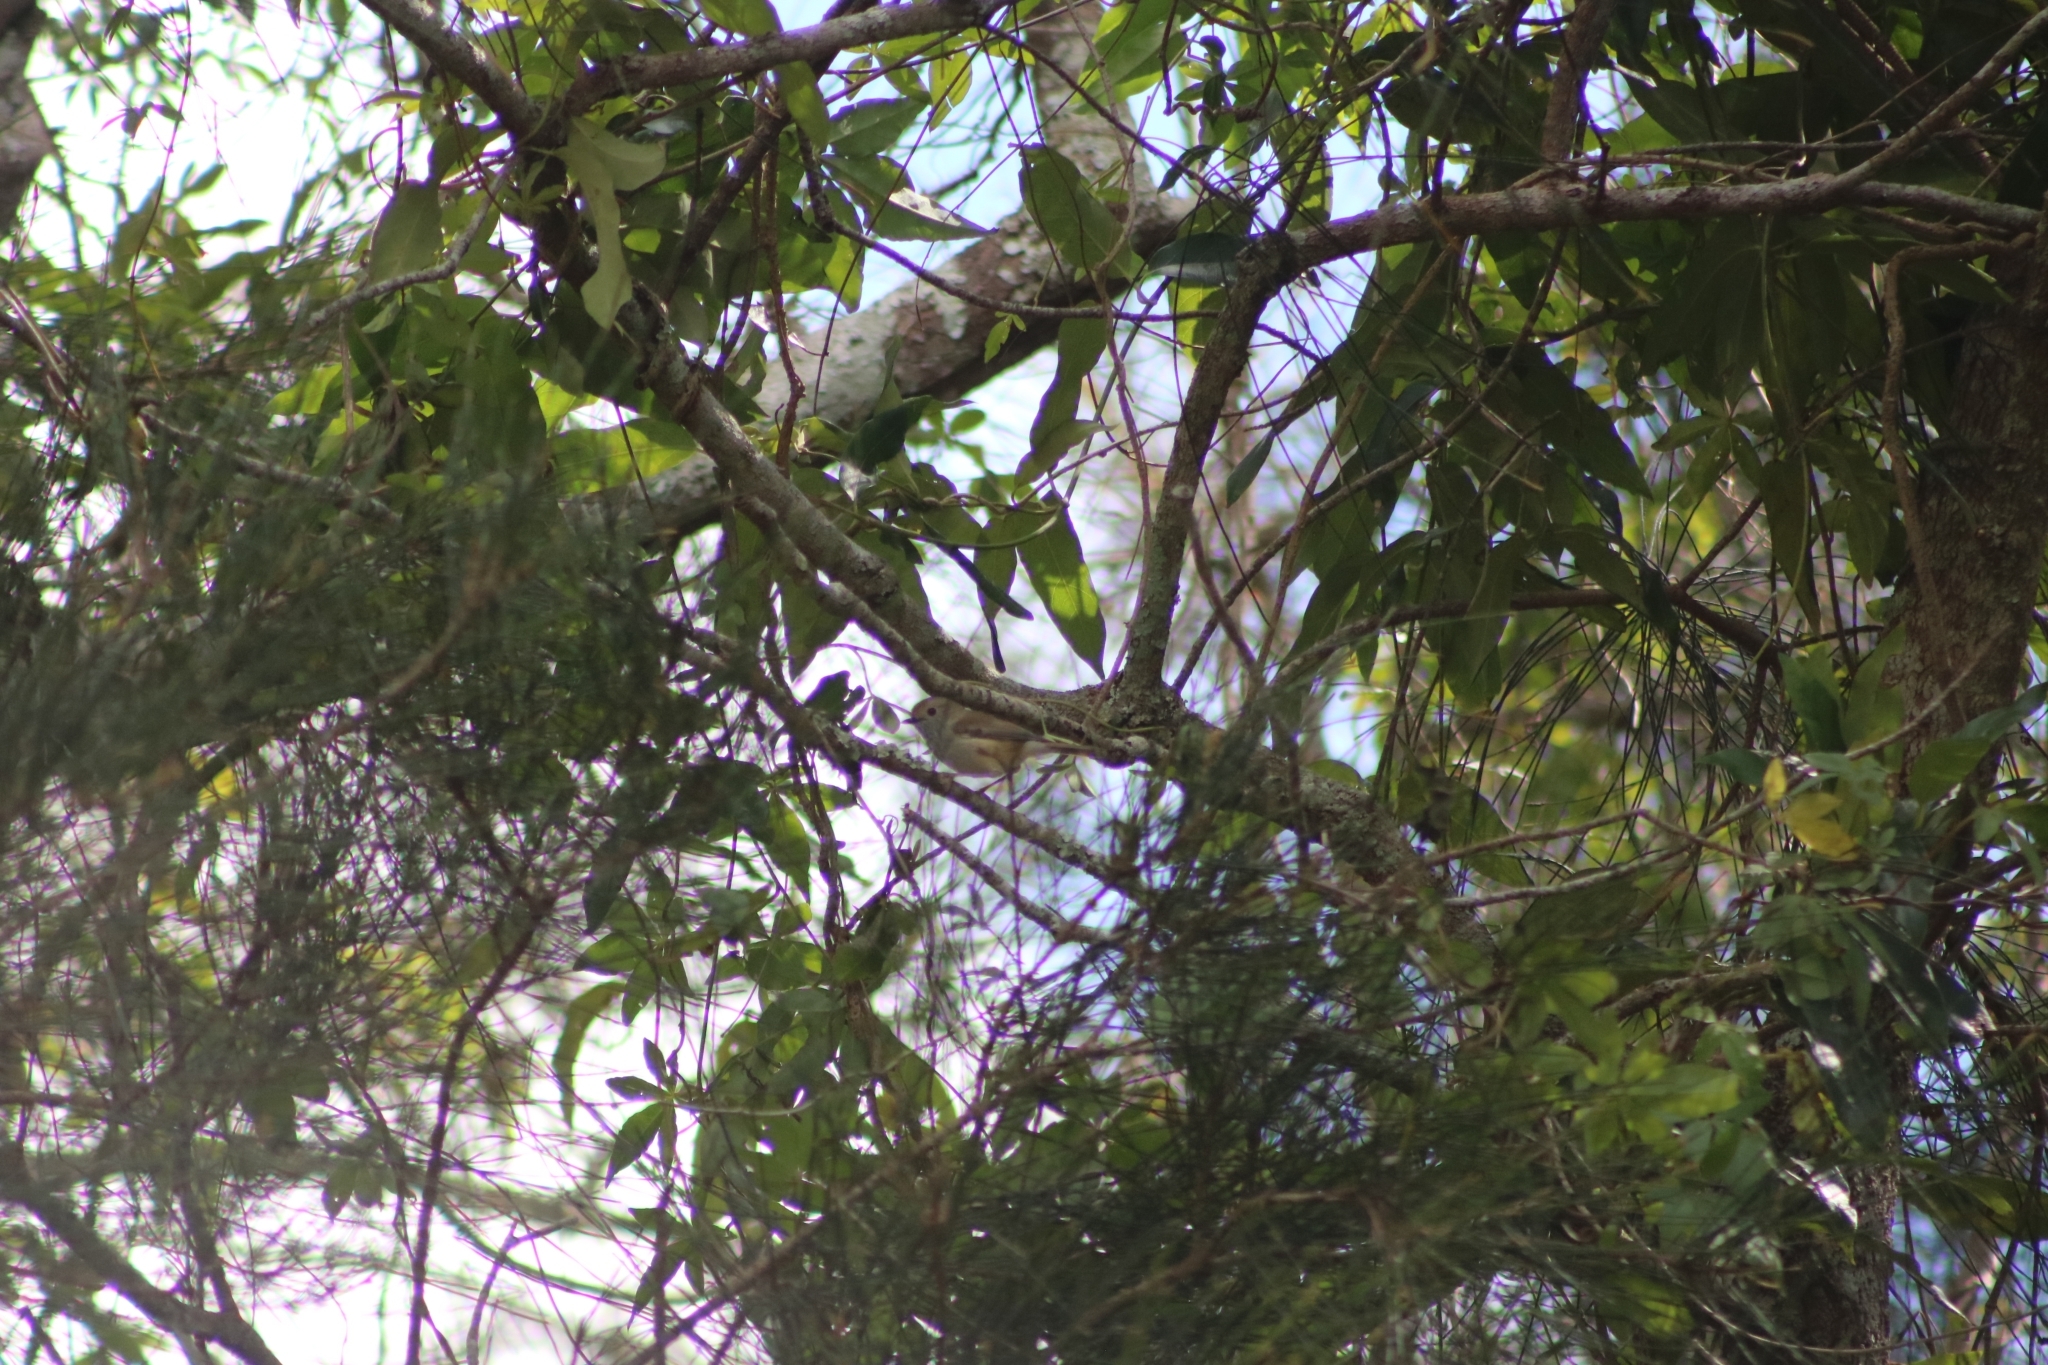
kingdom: Animalia
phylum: Chordata
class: Aves
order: Passeriformes
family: Acanthizidae
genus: Acanthiza
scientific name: Acanthiza pusilla
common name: Brown thornbill
